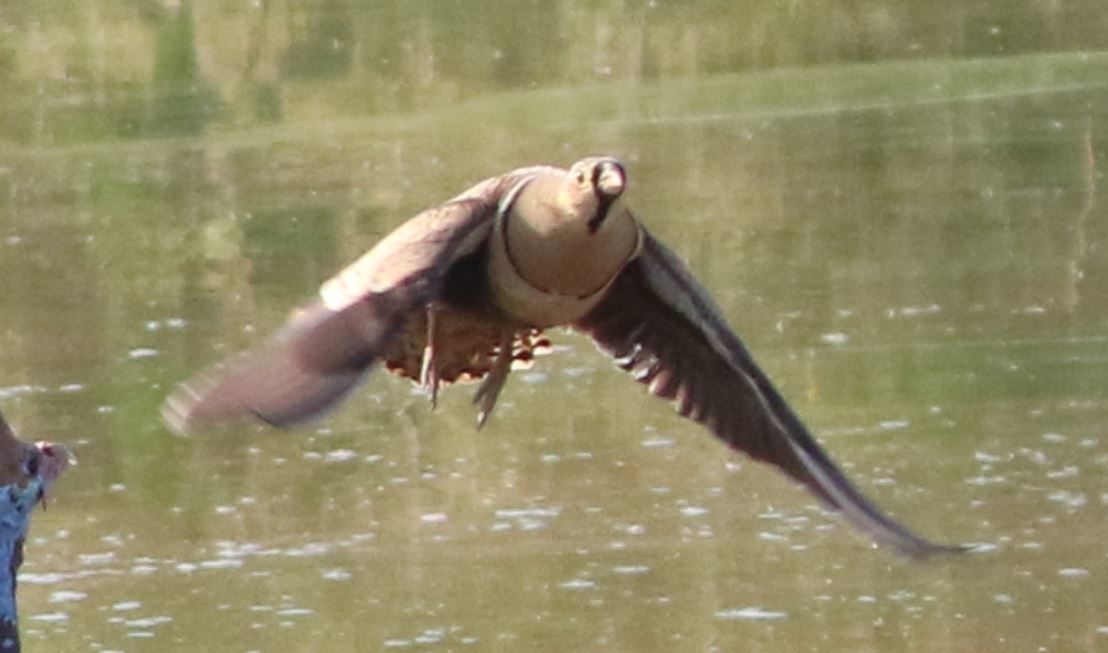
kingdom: Animalia
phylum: Chordata
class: Aves
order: Pteroclidiformes
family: Pteroclididae
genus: Pterocles
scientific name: Pterocles decoratus
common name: Black-faced sandgrouse
